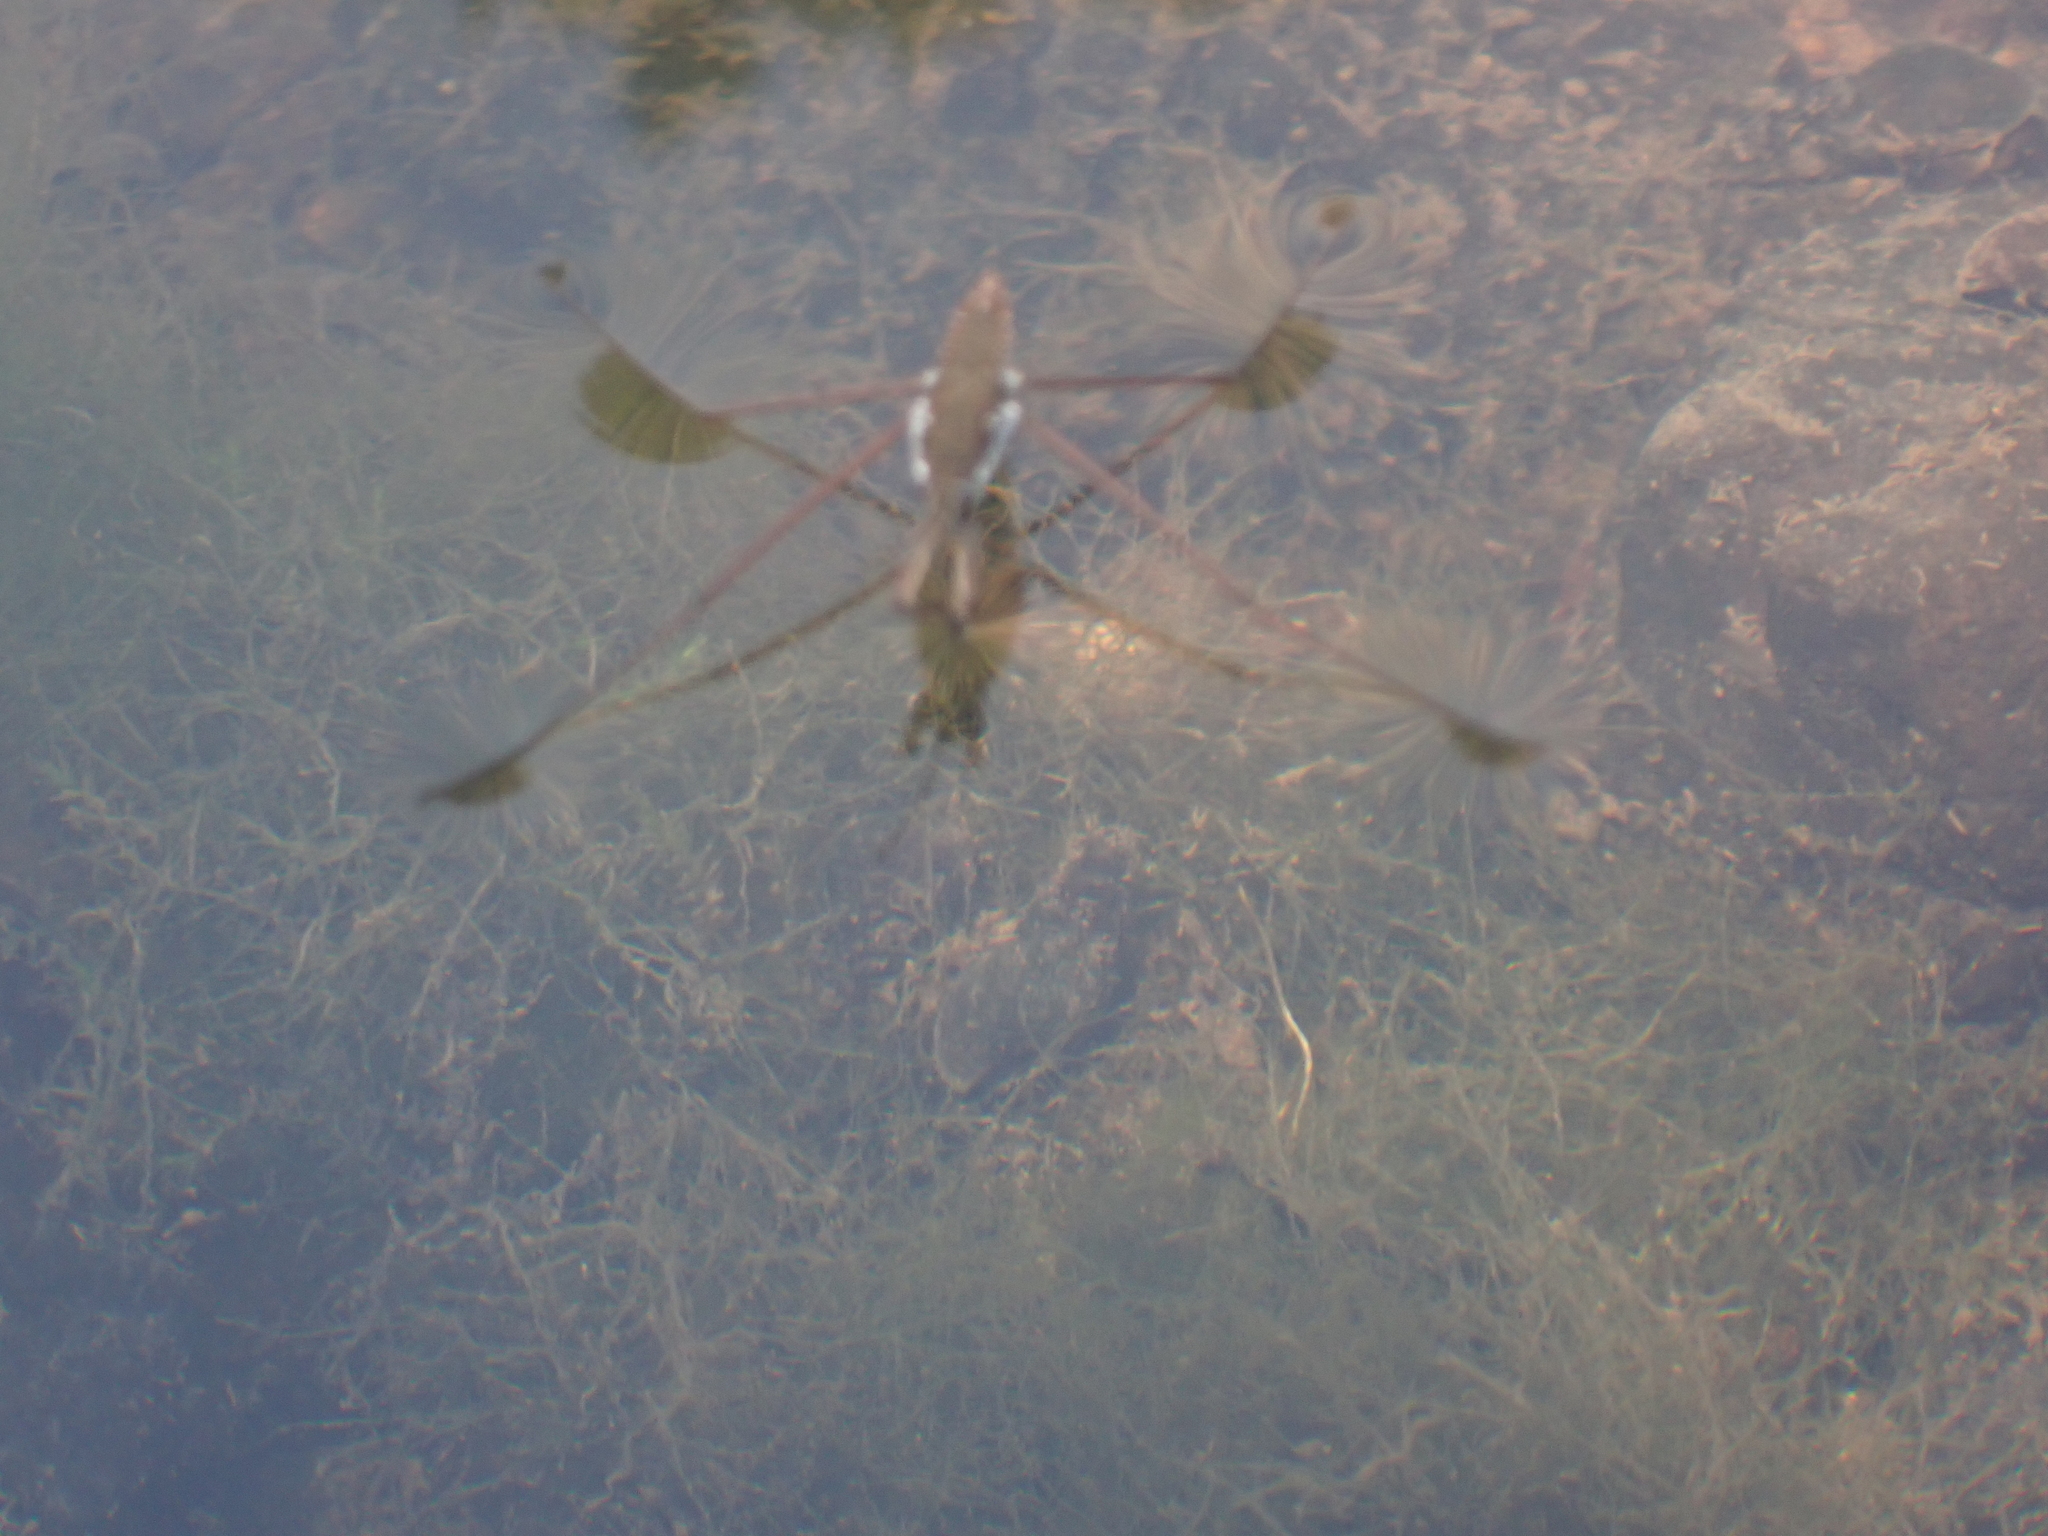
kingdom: Animalia
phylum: Arthropoda
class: Insecta
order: Hemiptera
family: Gerridae
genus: Aquarius
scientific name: Aquarius
